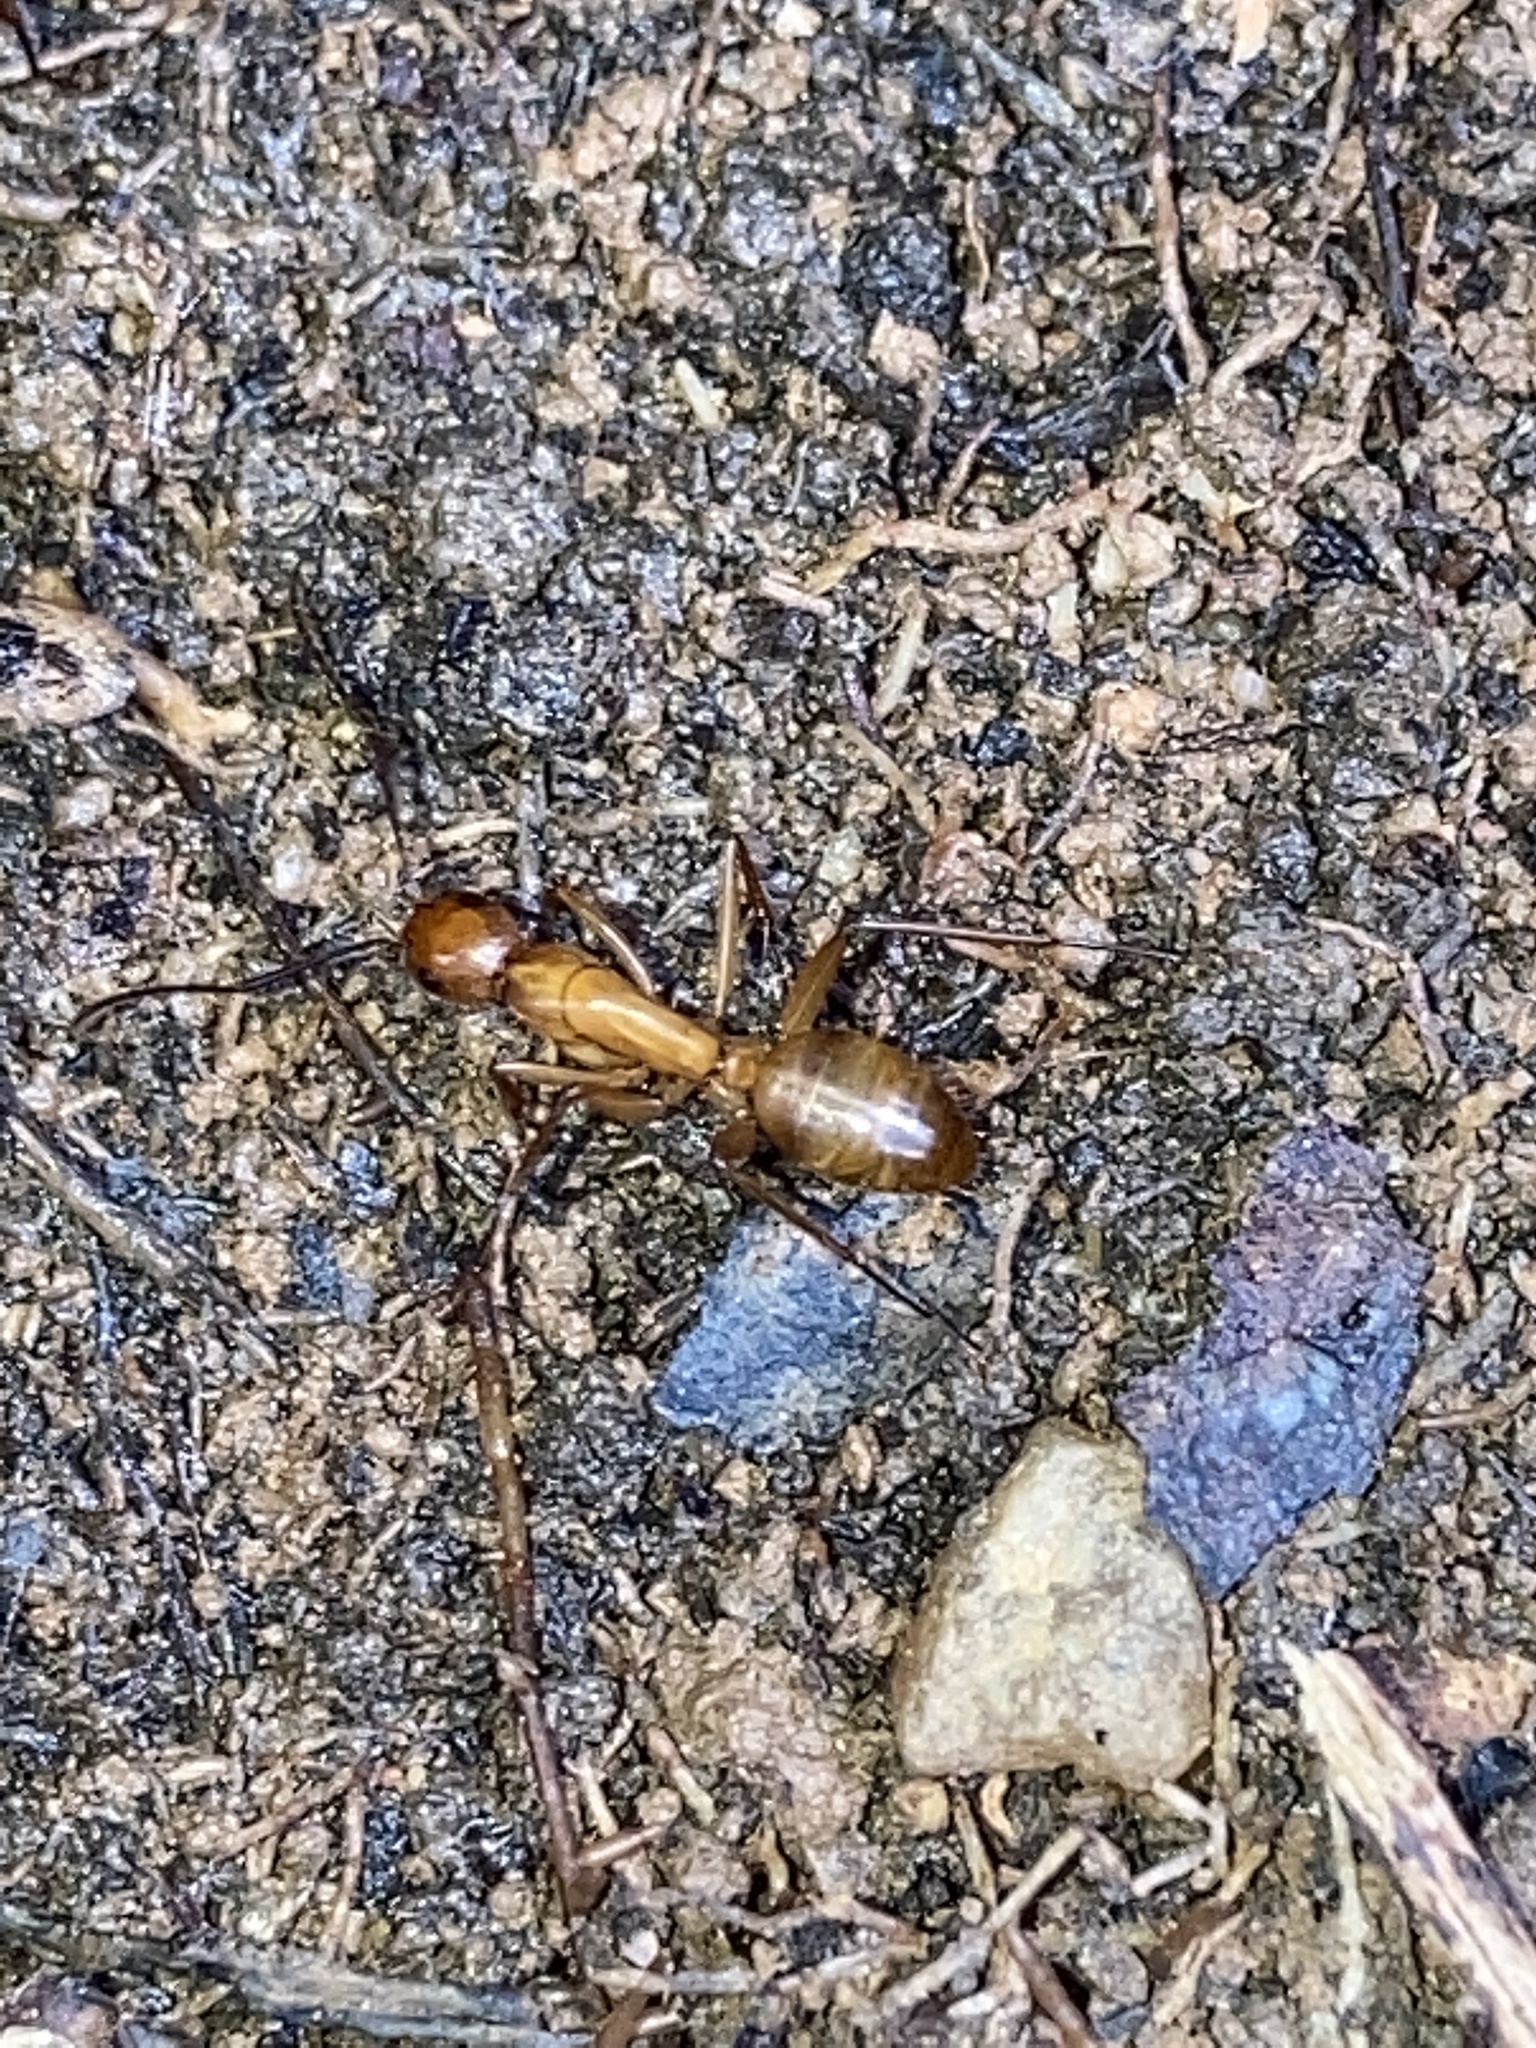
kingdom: Animalia
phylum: Arthropoda
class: Insecta
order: Hymenoptera
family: Formicidae
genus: Camponotus
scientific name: Camponotus castaneus
